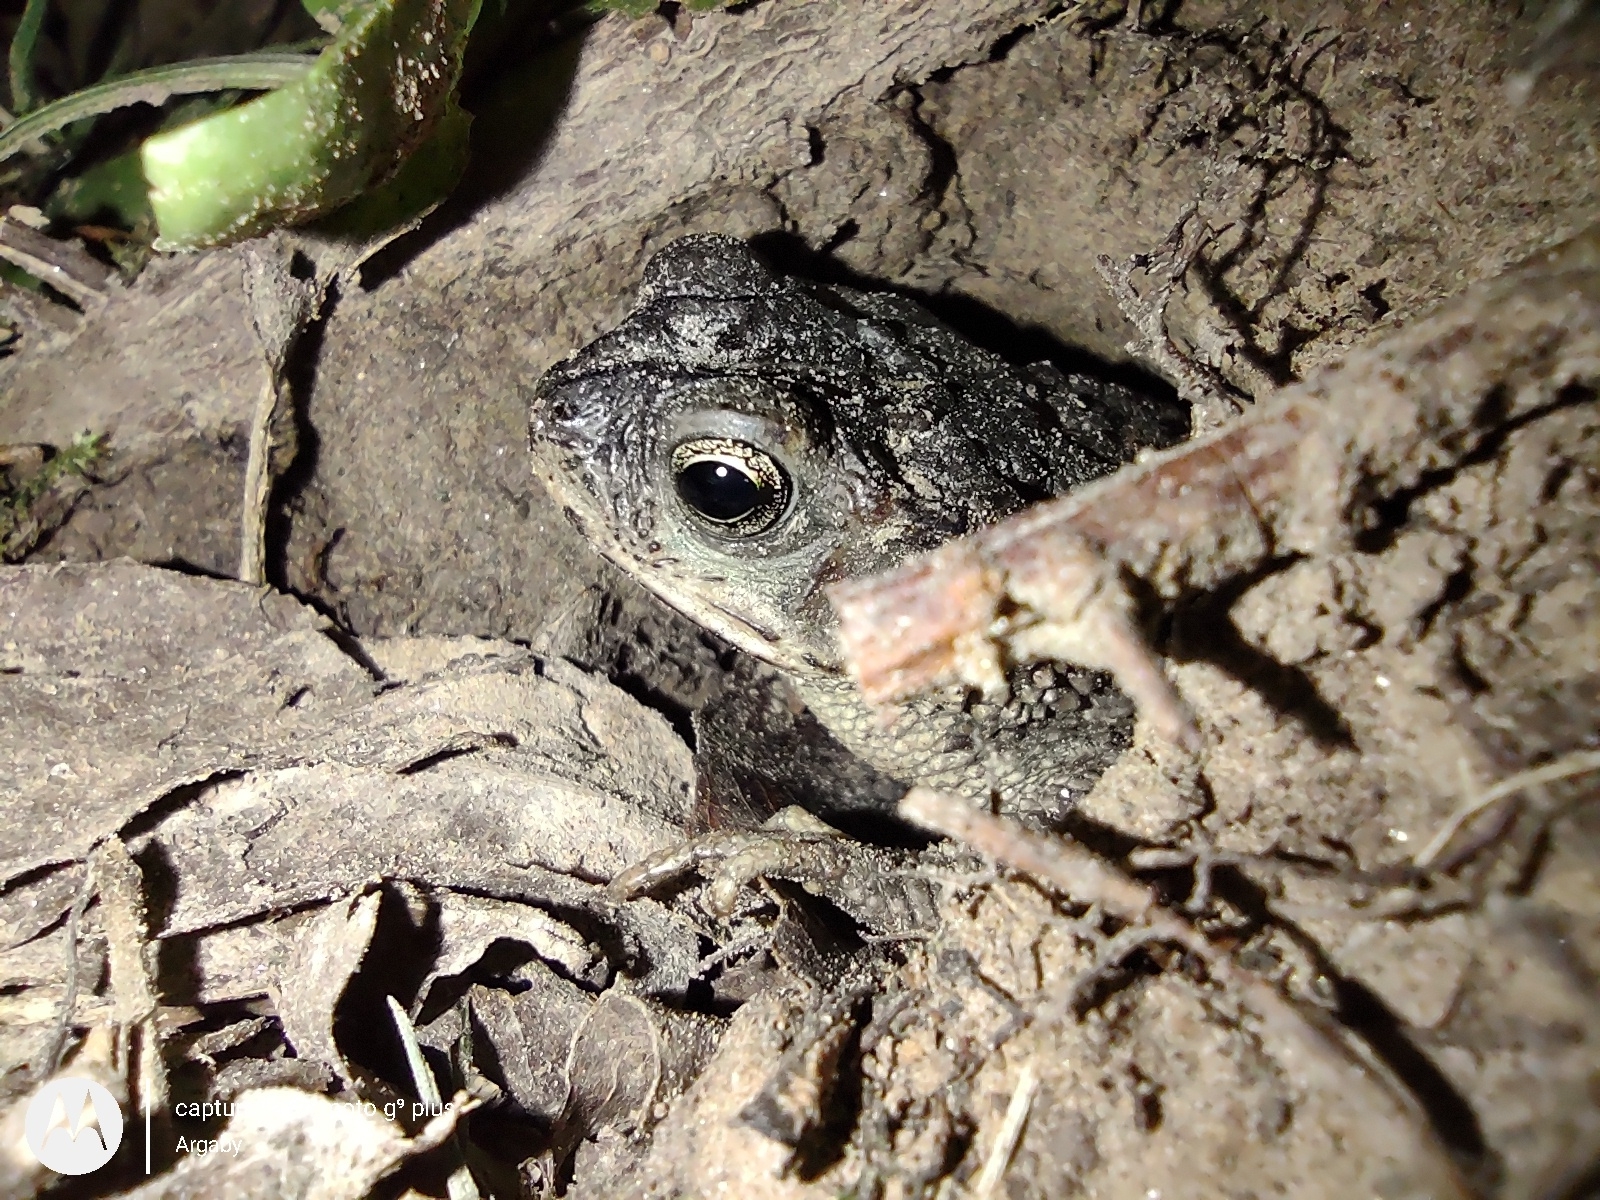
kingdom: Animalia
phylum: Chordata
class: Amphibia
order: Anura
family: Bufonidae
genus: Rhinella
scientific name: Rhinella dorbignyi
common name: D´orbigny’s toad
